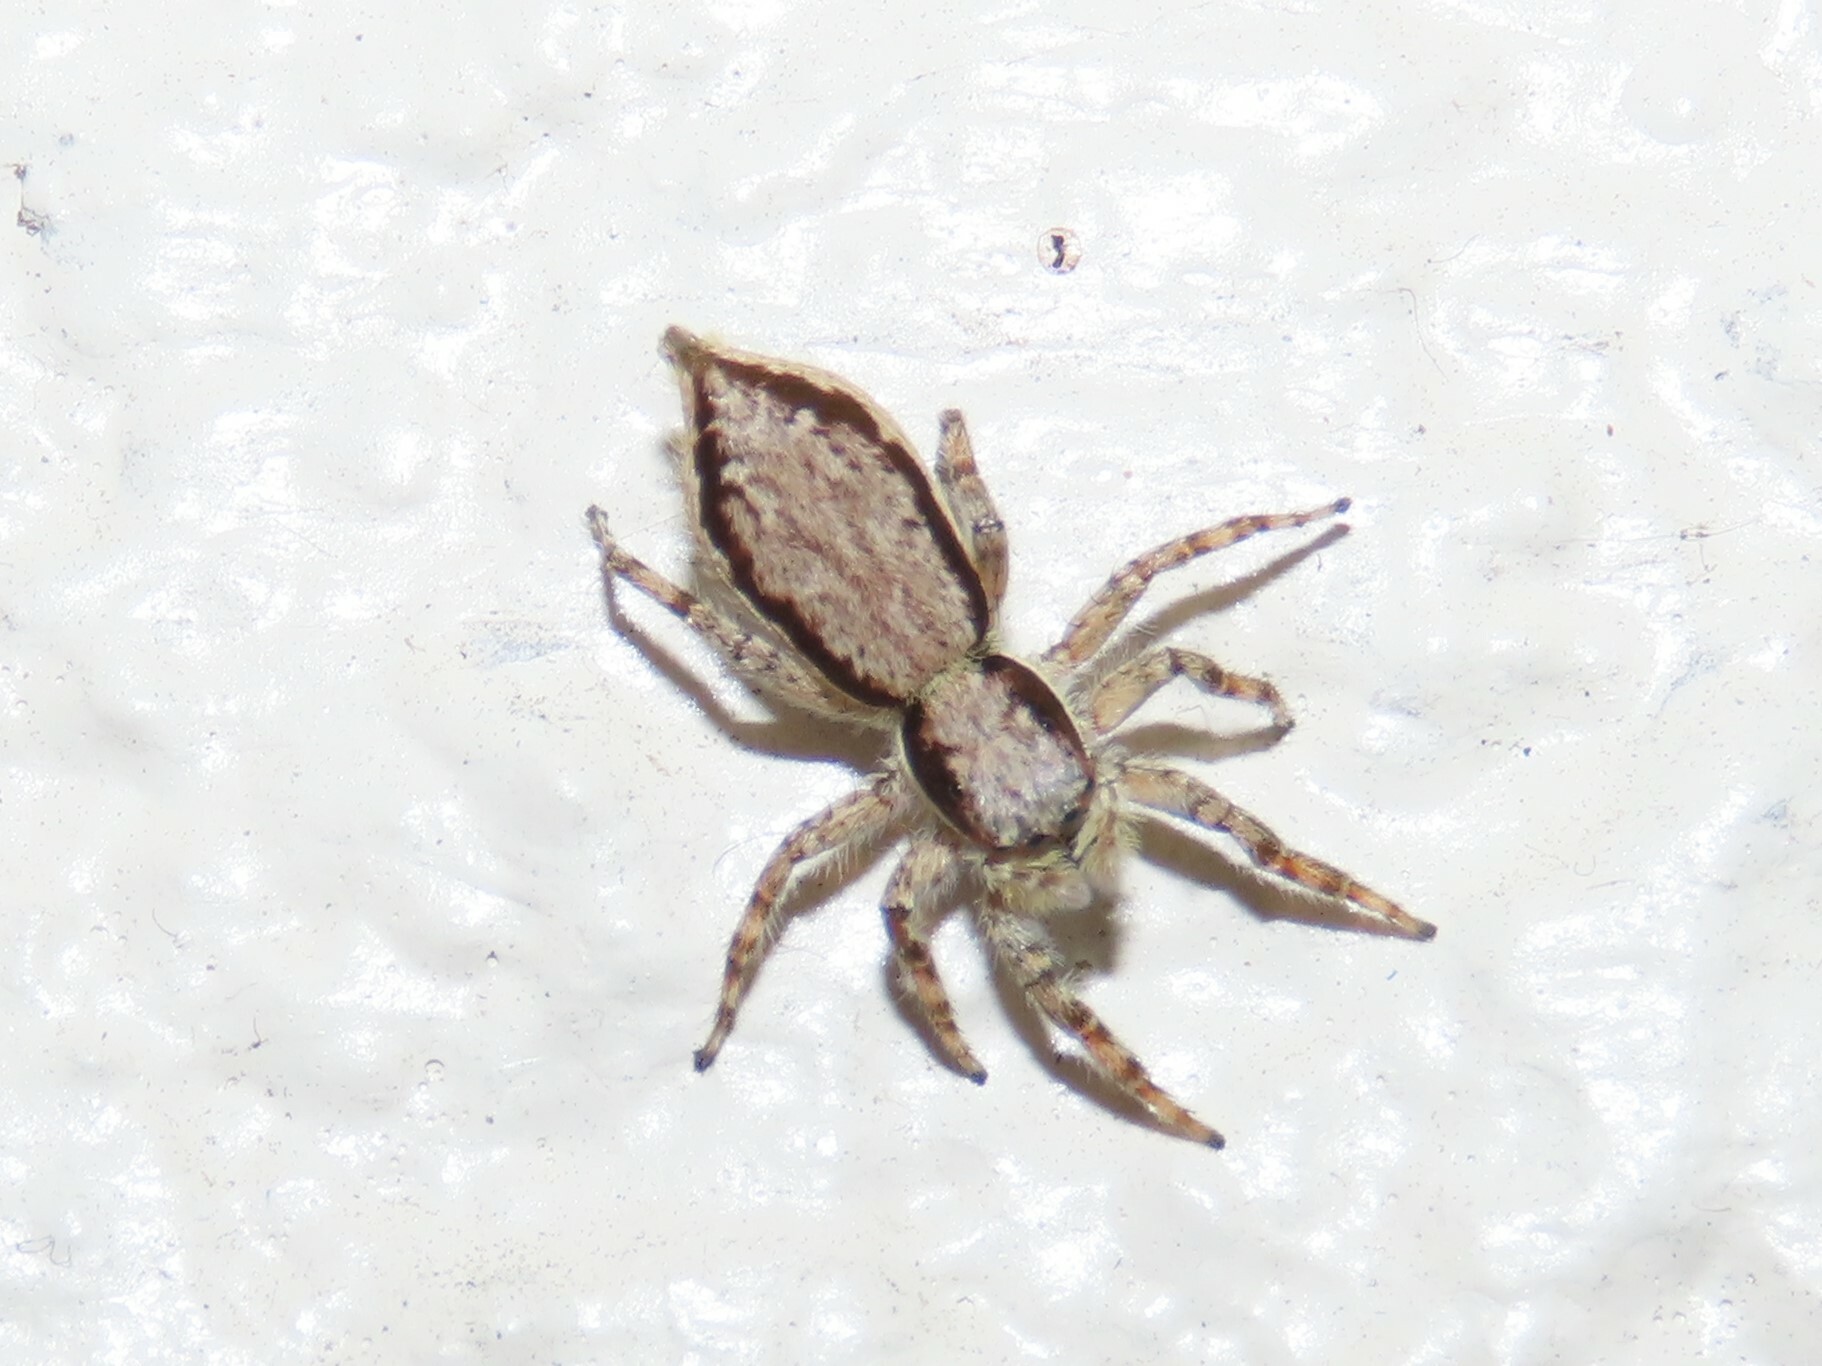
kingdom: Animalia
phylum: Arthropoda
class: Arachnida
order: Araneae
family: Salticidae
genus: Menemerus
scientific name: Menemerus bivittatus
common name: Gray wall jumper
